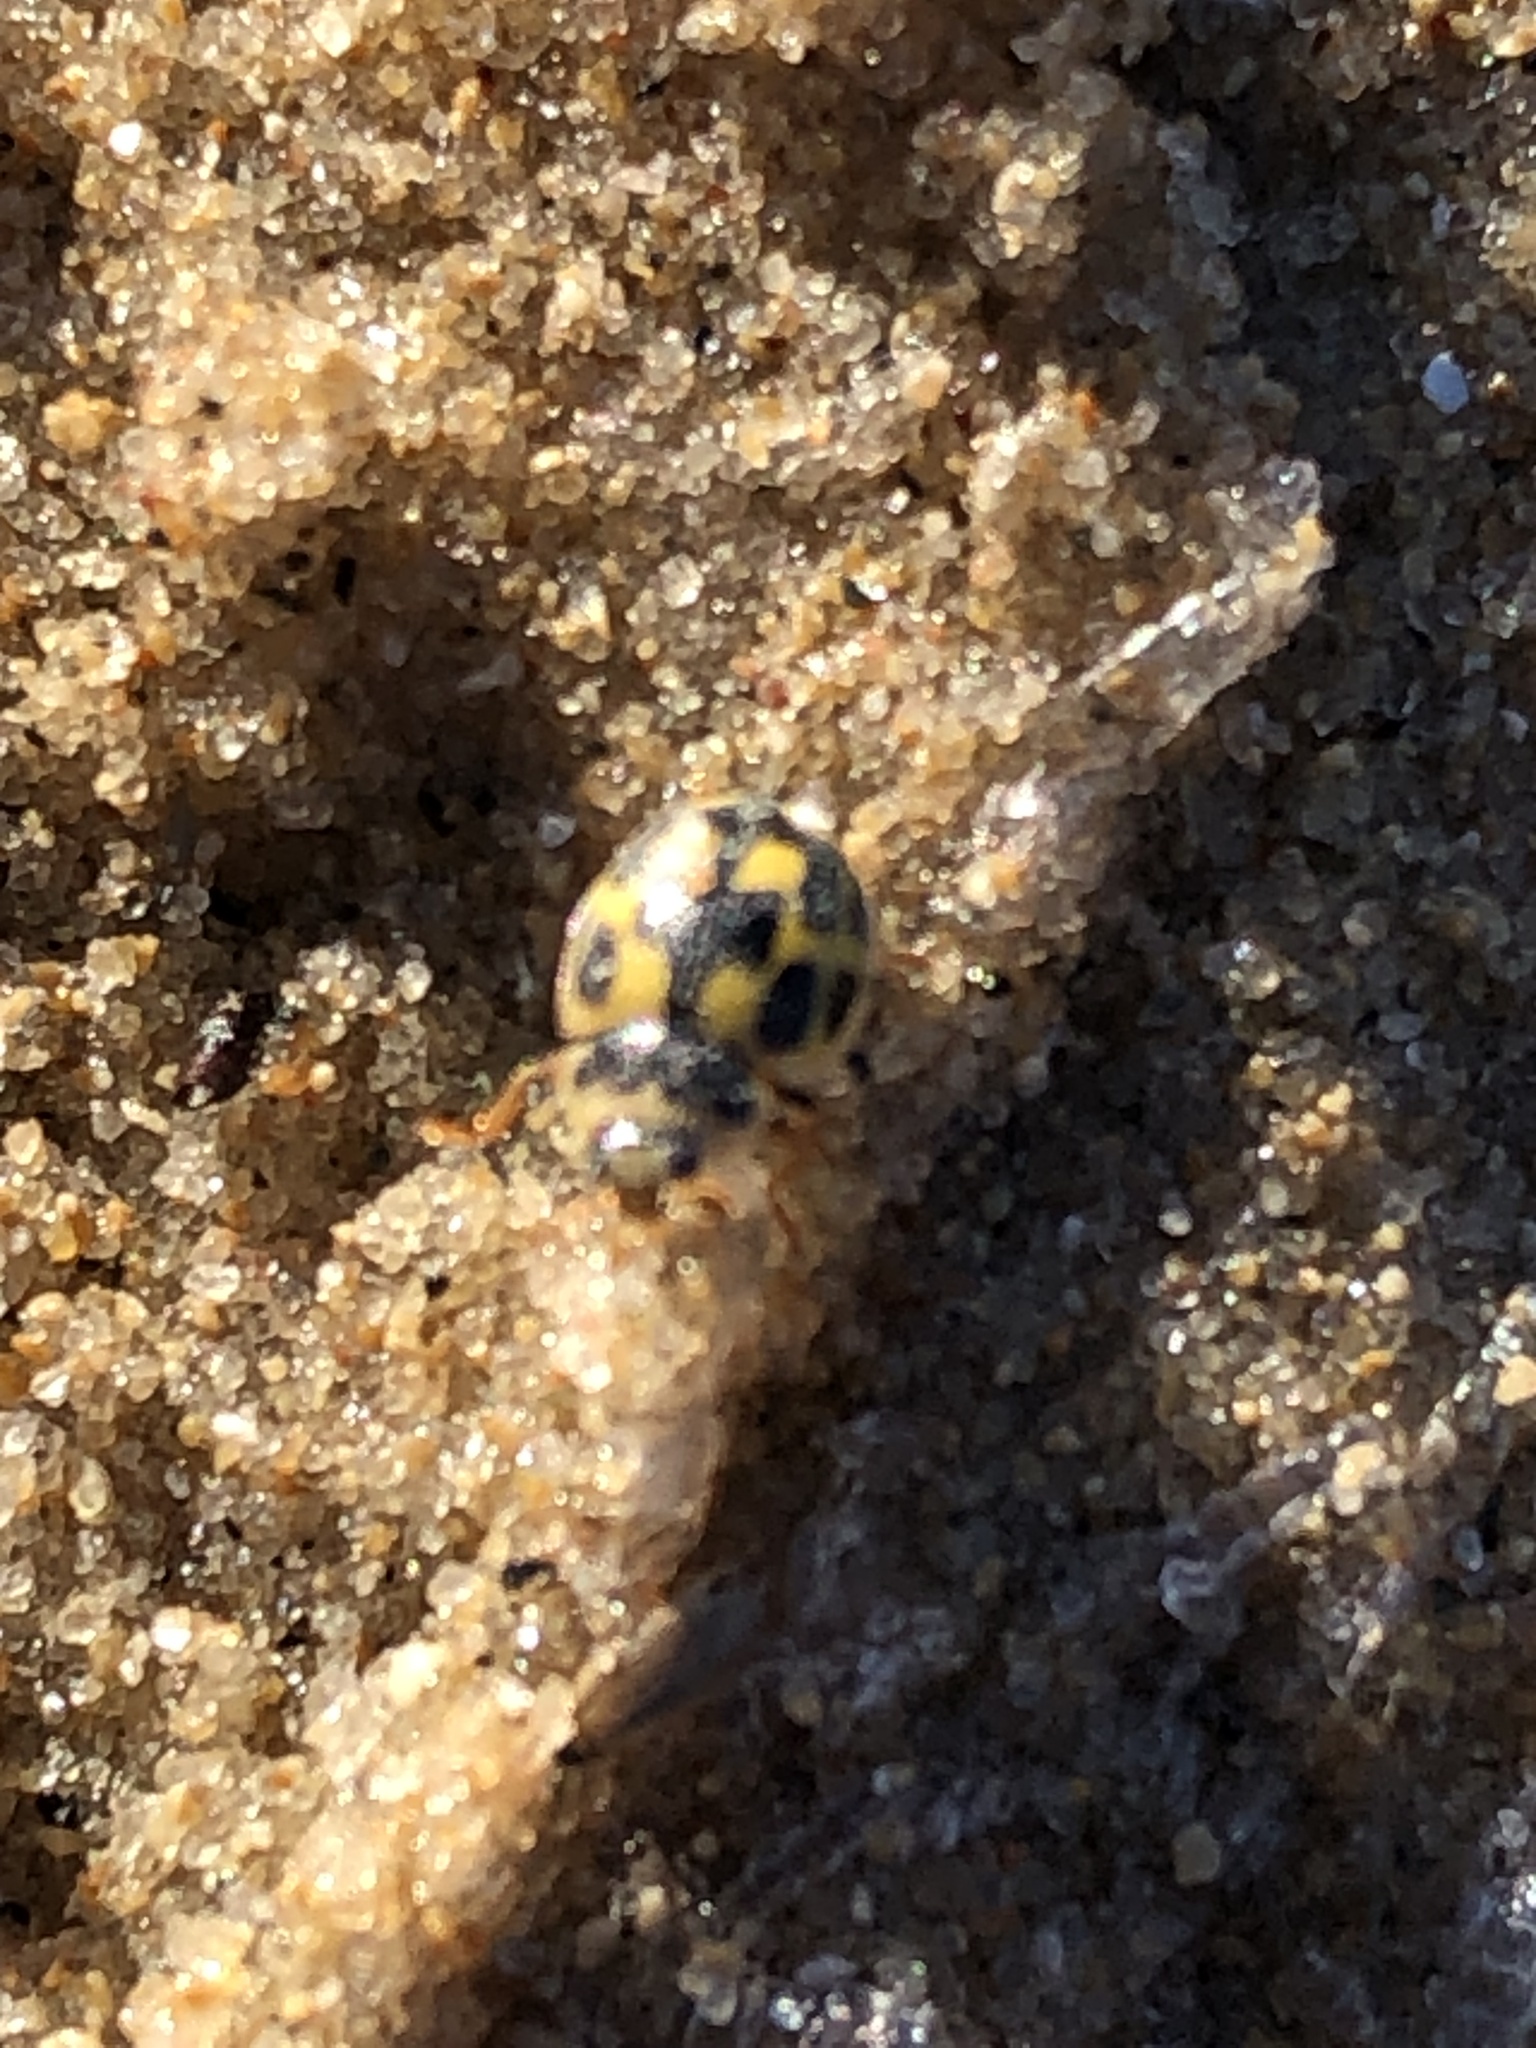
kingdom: Animalia
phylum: Arthropoda
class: Insecta
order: Coleoptera
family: Coccinellidae
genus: Propylaea
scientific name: Propylaea quatuordecimpunctata
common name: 14-spotted ladybird beetle
